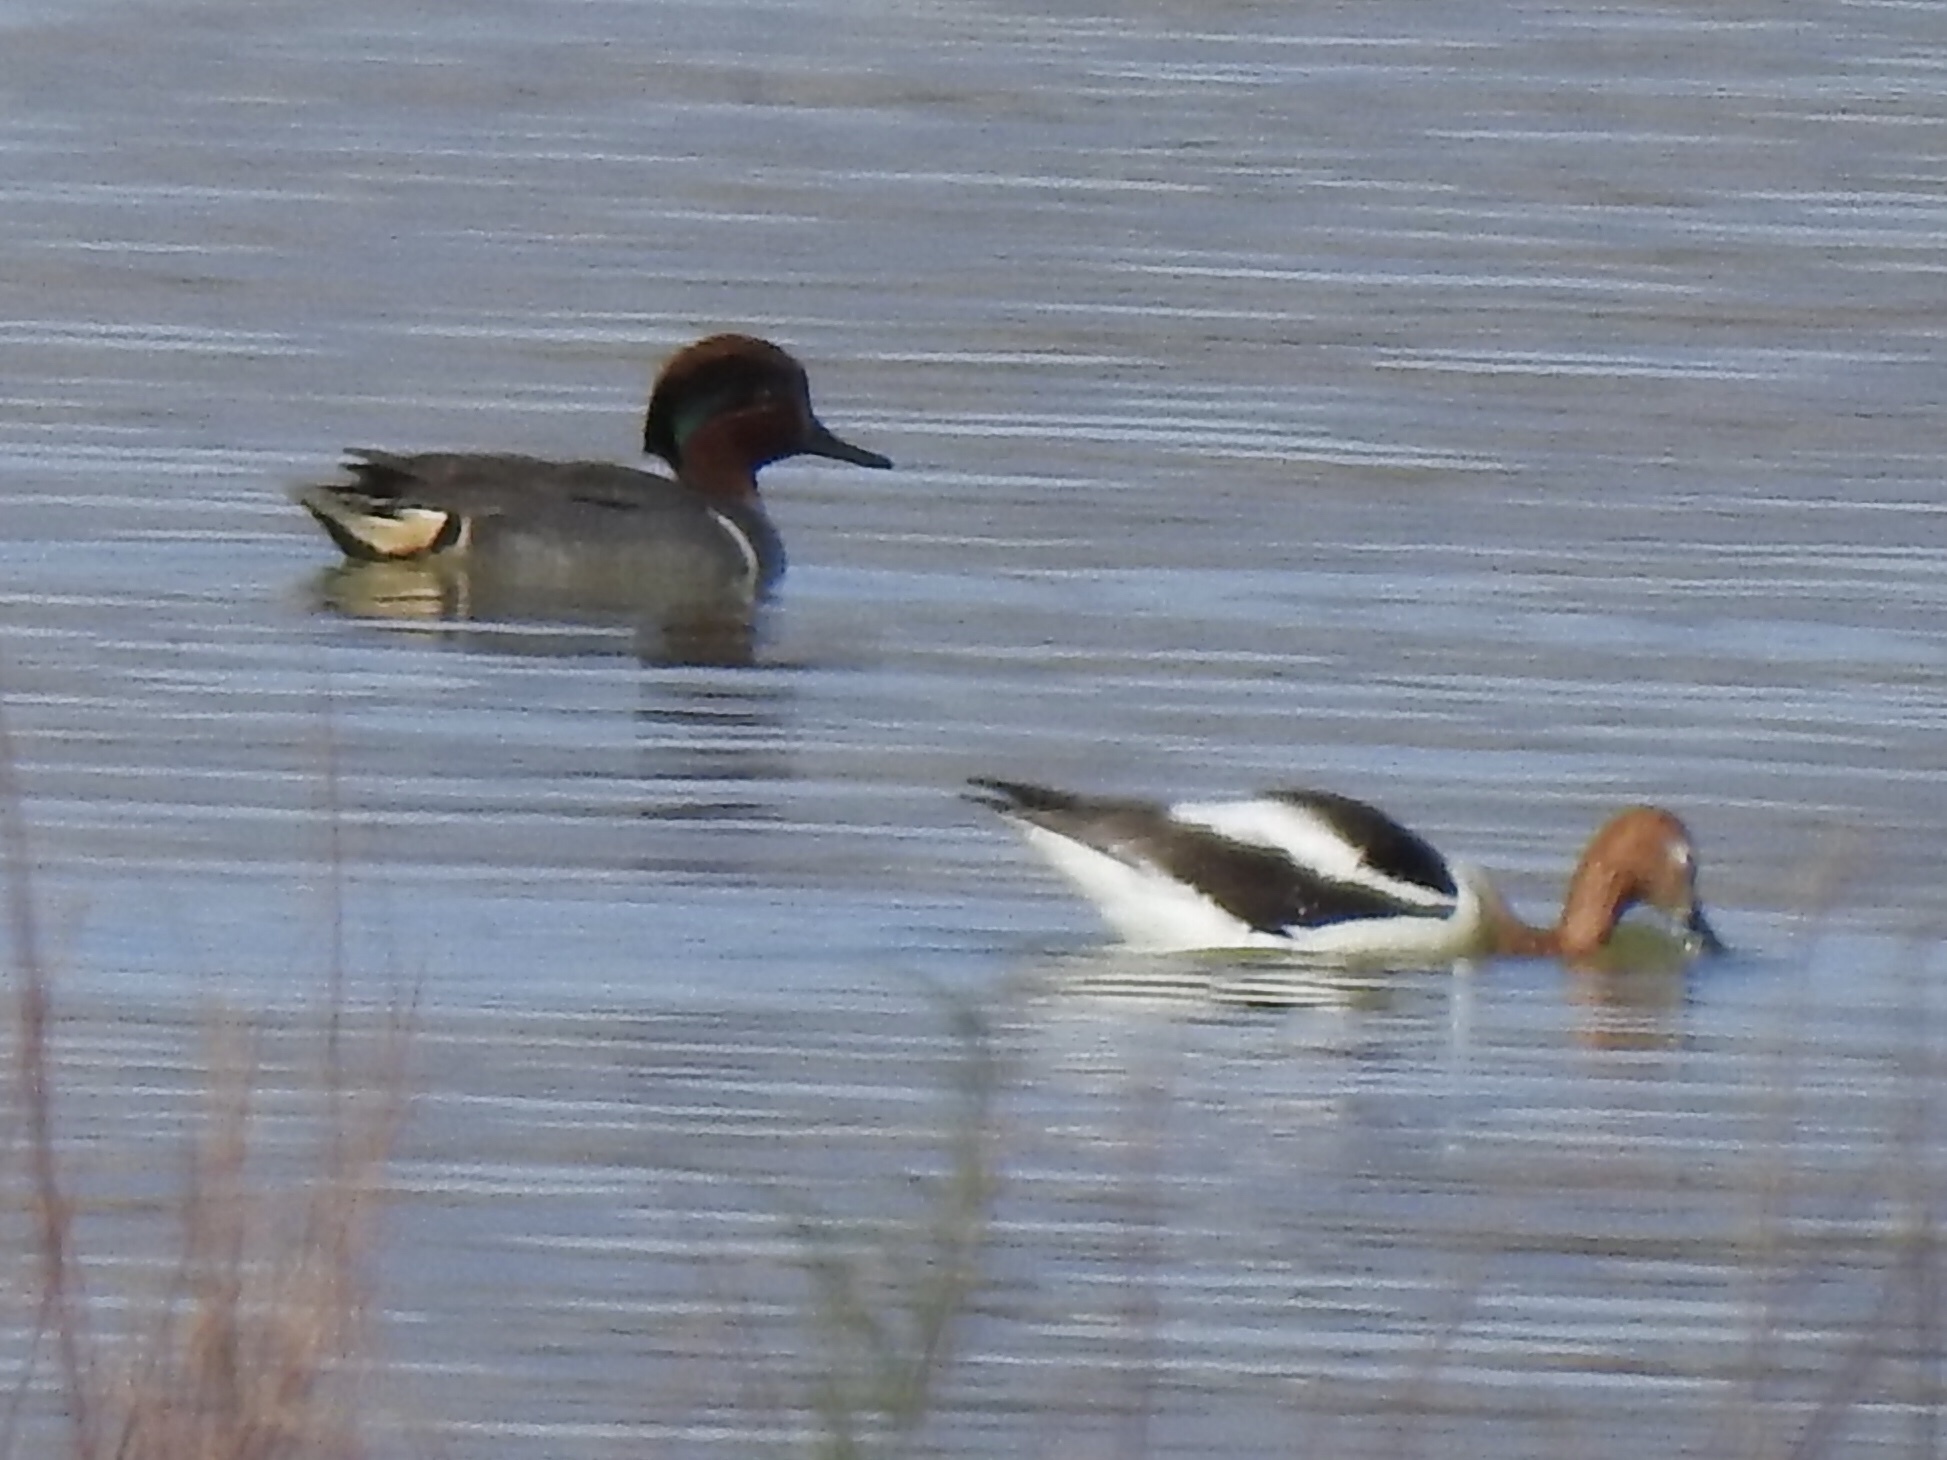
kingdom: Animalia
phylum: Chordata
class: Aves
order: Anseriformes
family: Anatidae
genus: Anas
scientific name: Anas crecca
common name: Eurasian teal
